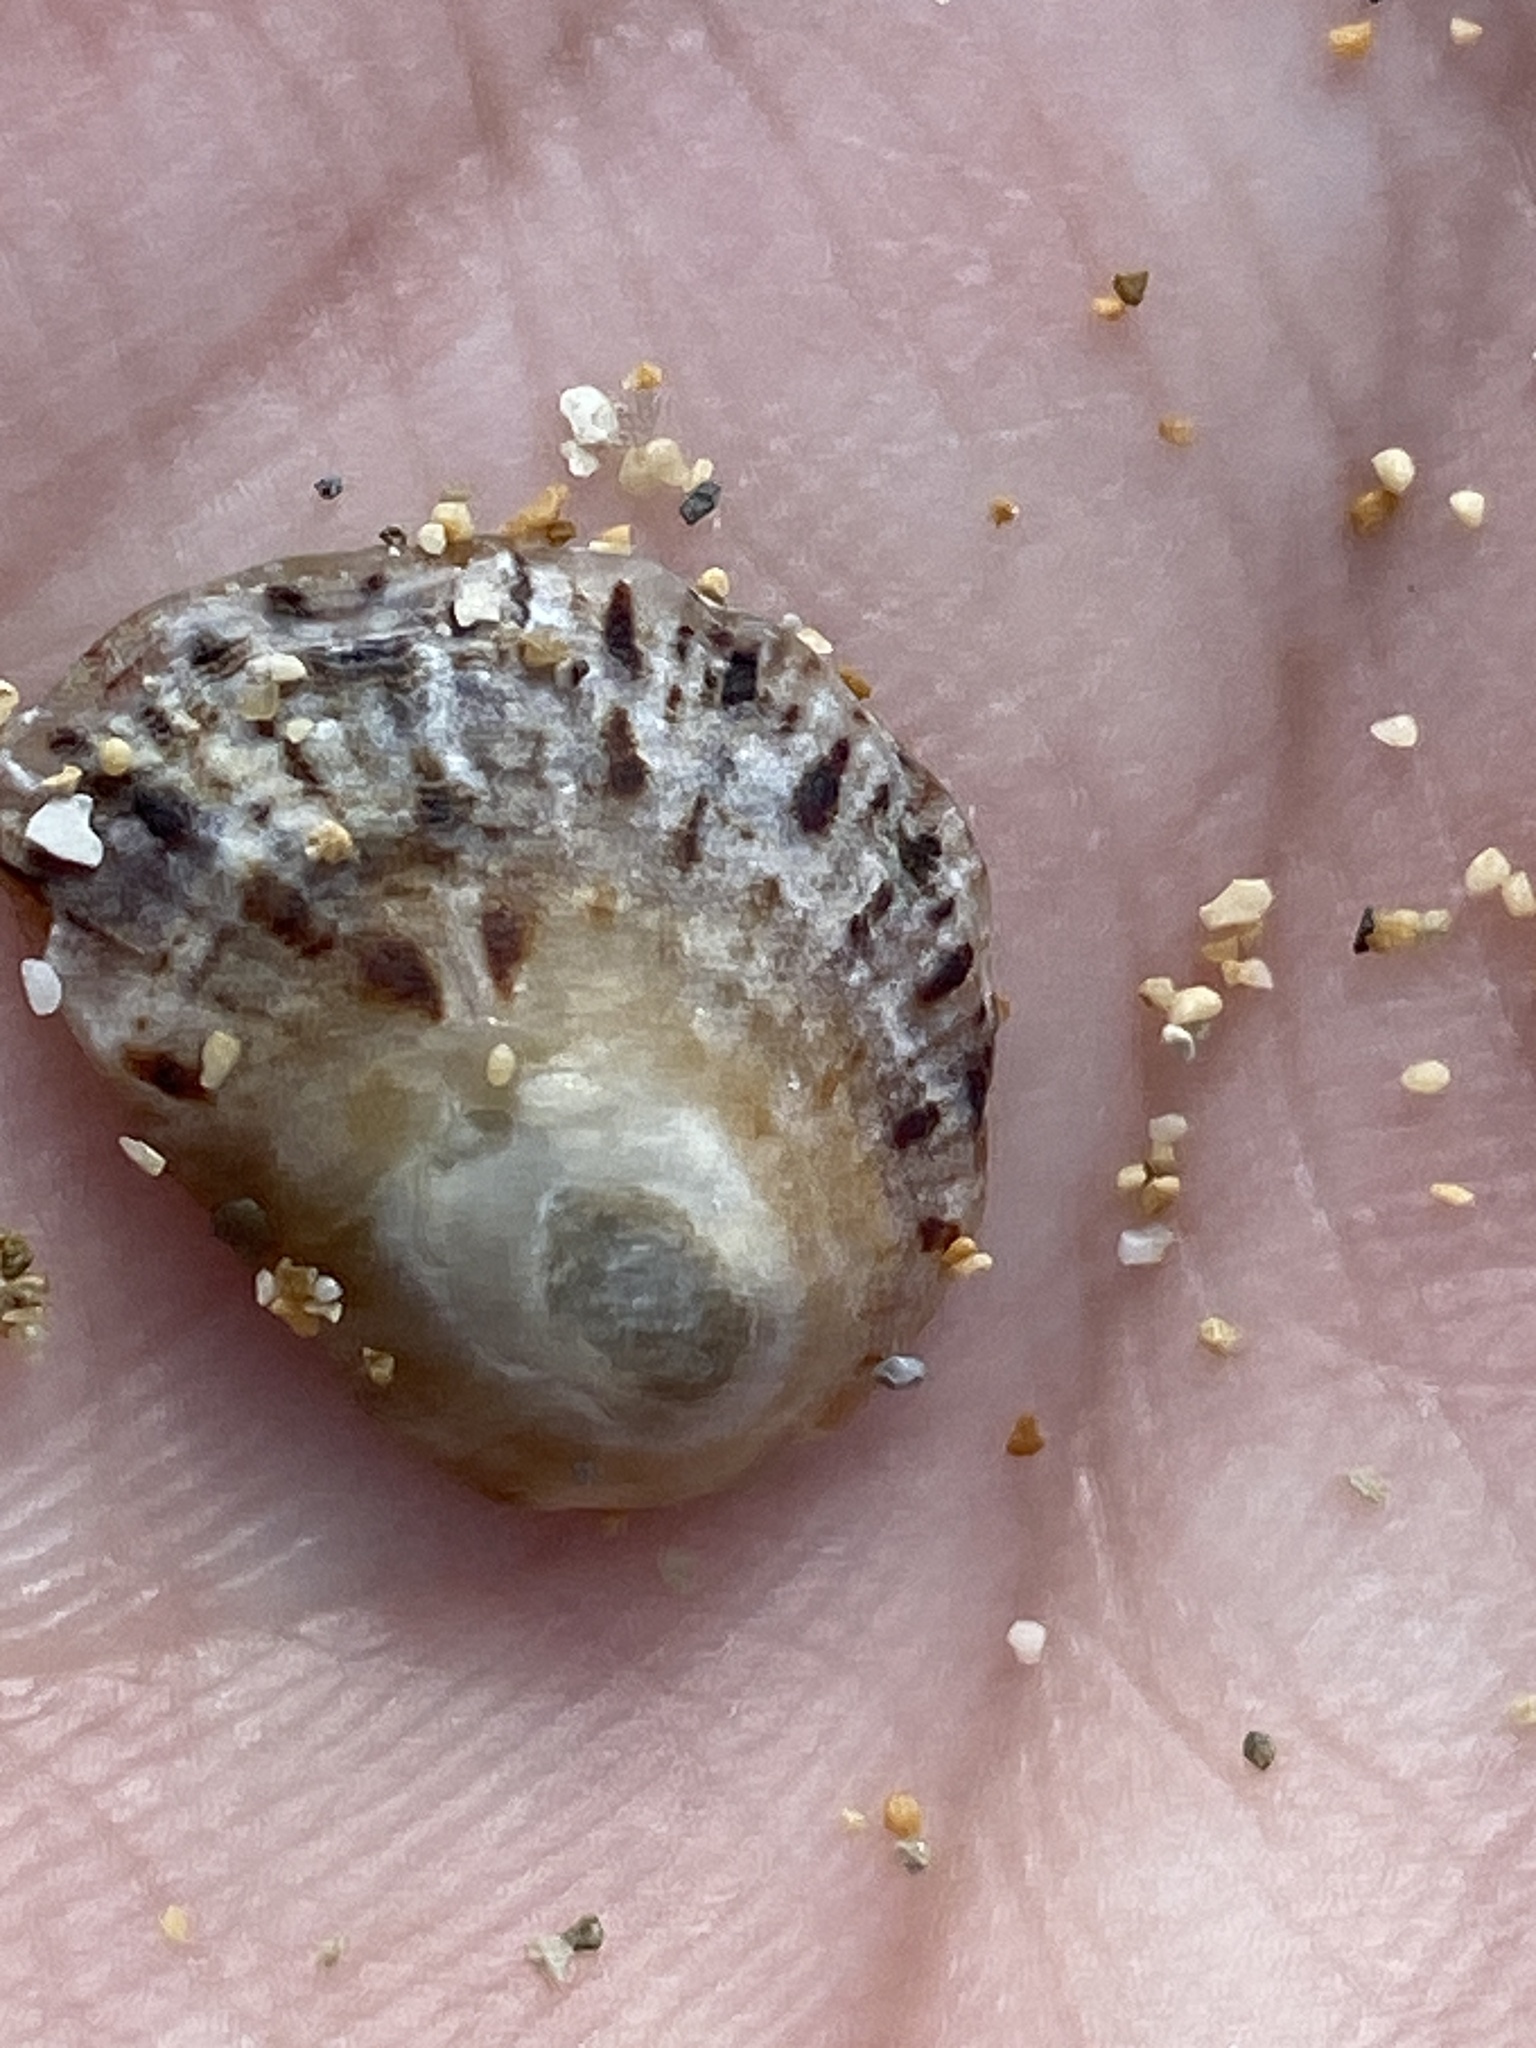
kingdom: Animalia
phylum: Mollusca
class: Gastropoda
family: Patellidae
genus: Patella
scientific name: Patella rustica
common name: Lusitanian limpet
